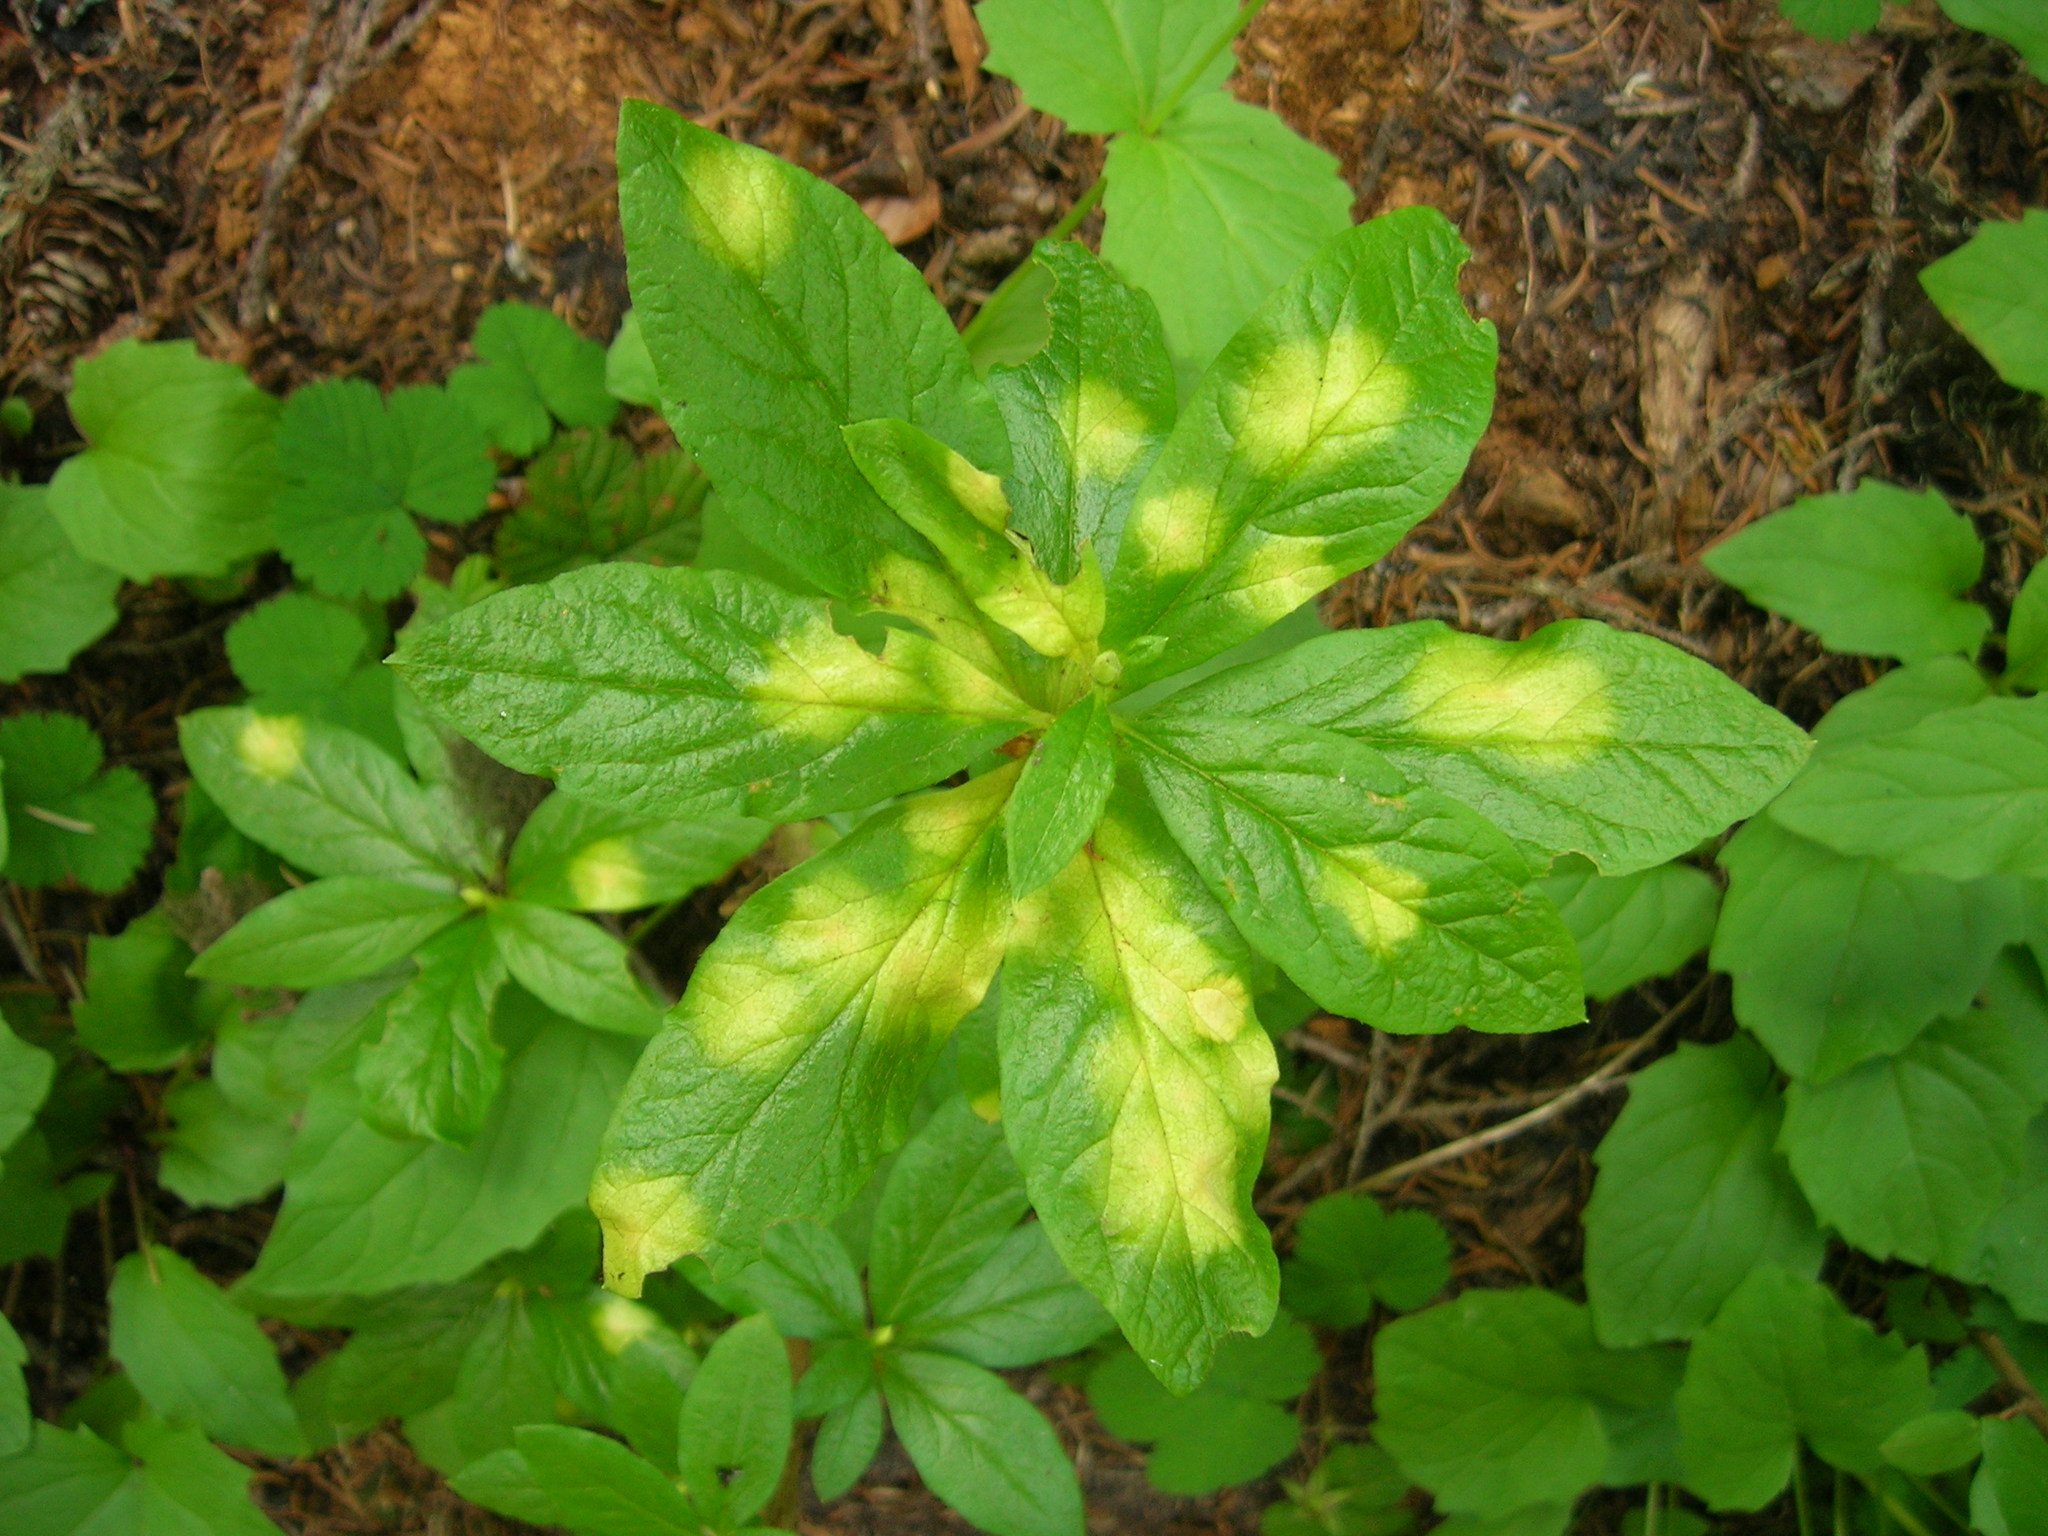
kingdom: Plantae
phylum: Tracheophyta
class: Magnoliopsida
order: Ericales
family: Ericaceae
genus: Rhododendron
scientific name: Rhododendron albiflorum
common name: White rhododendron
